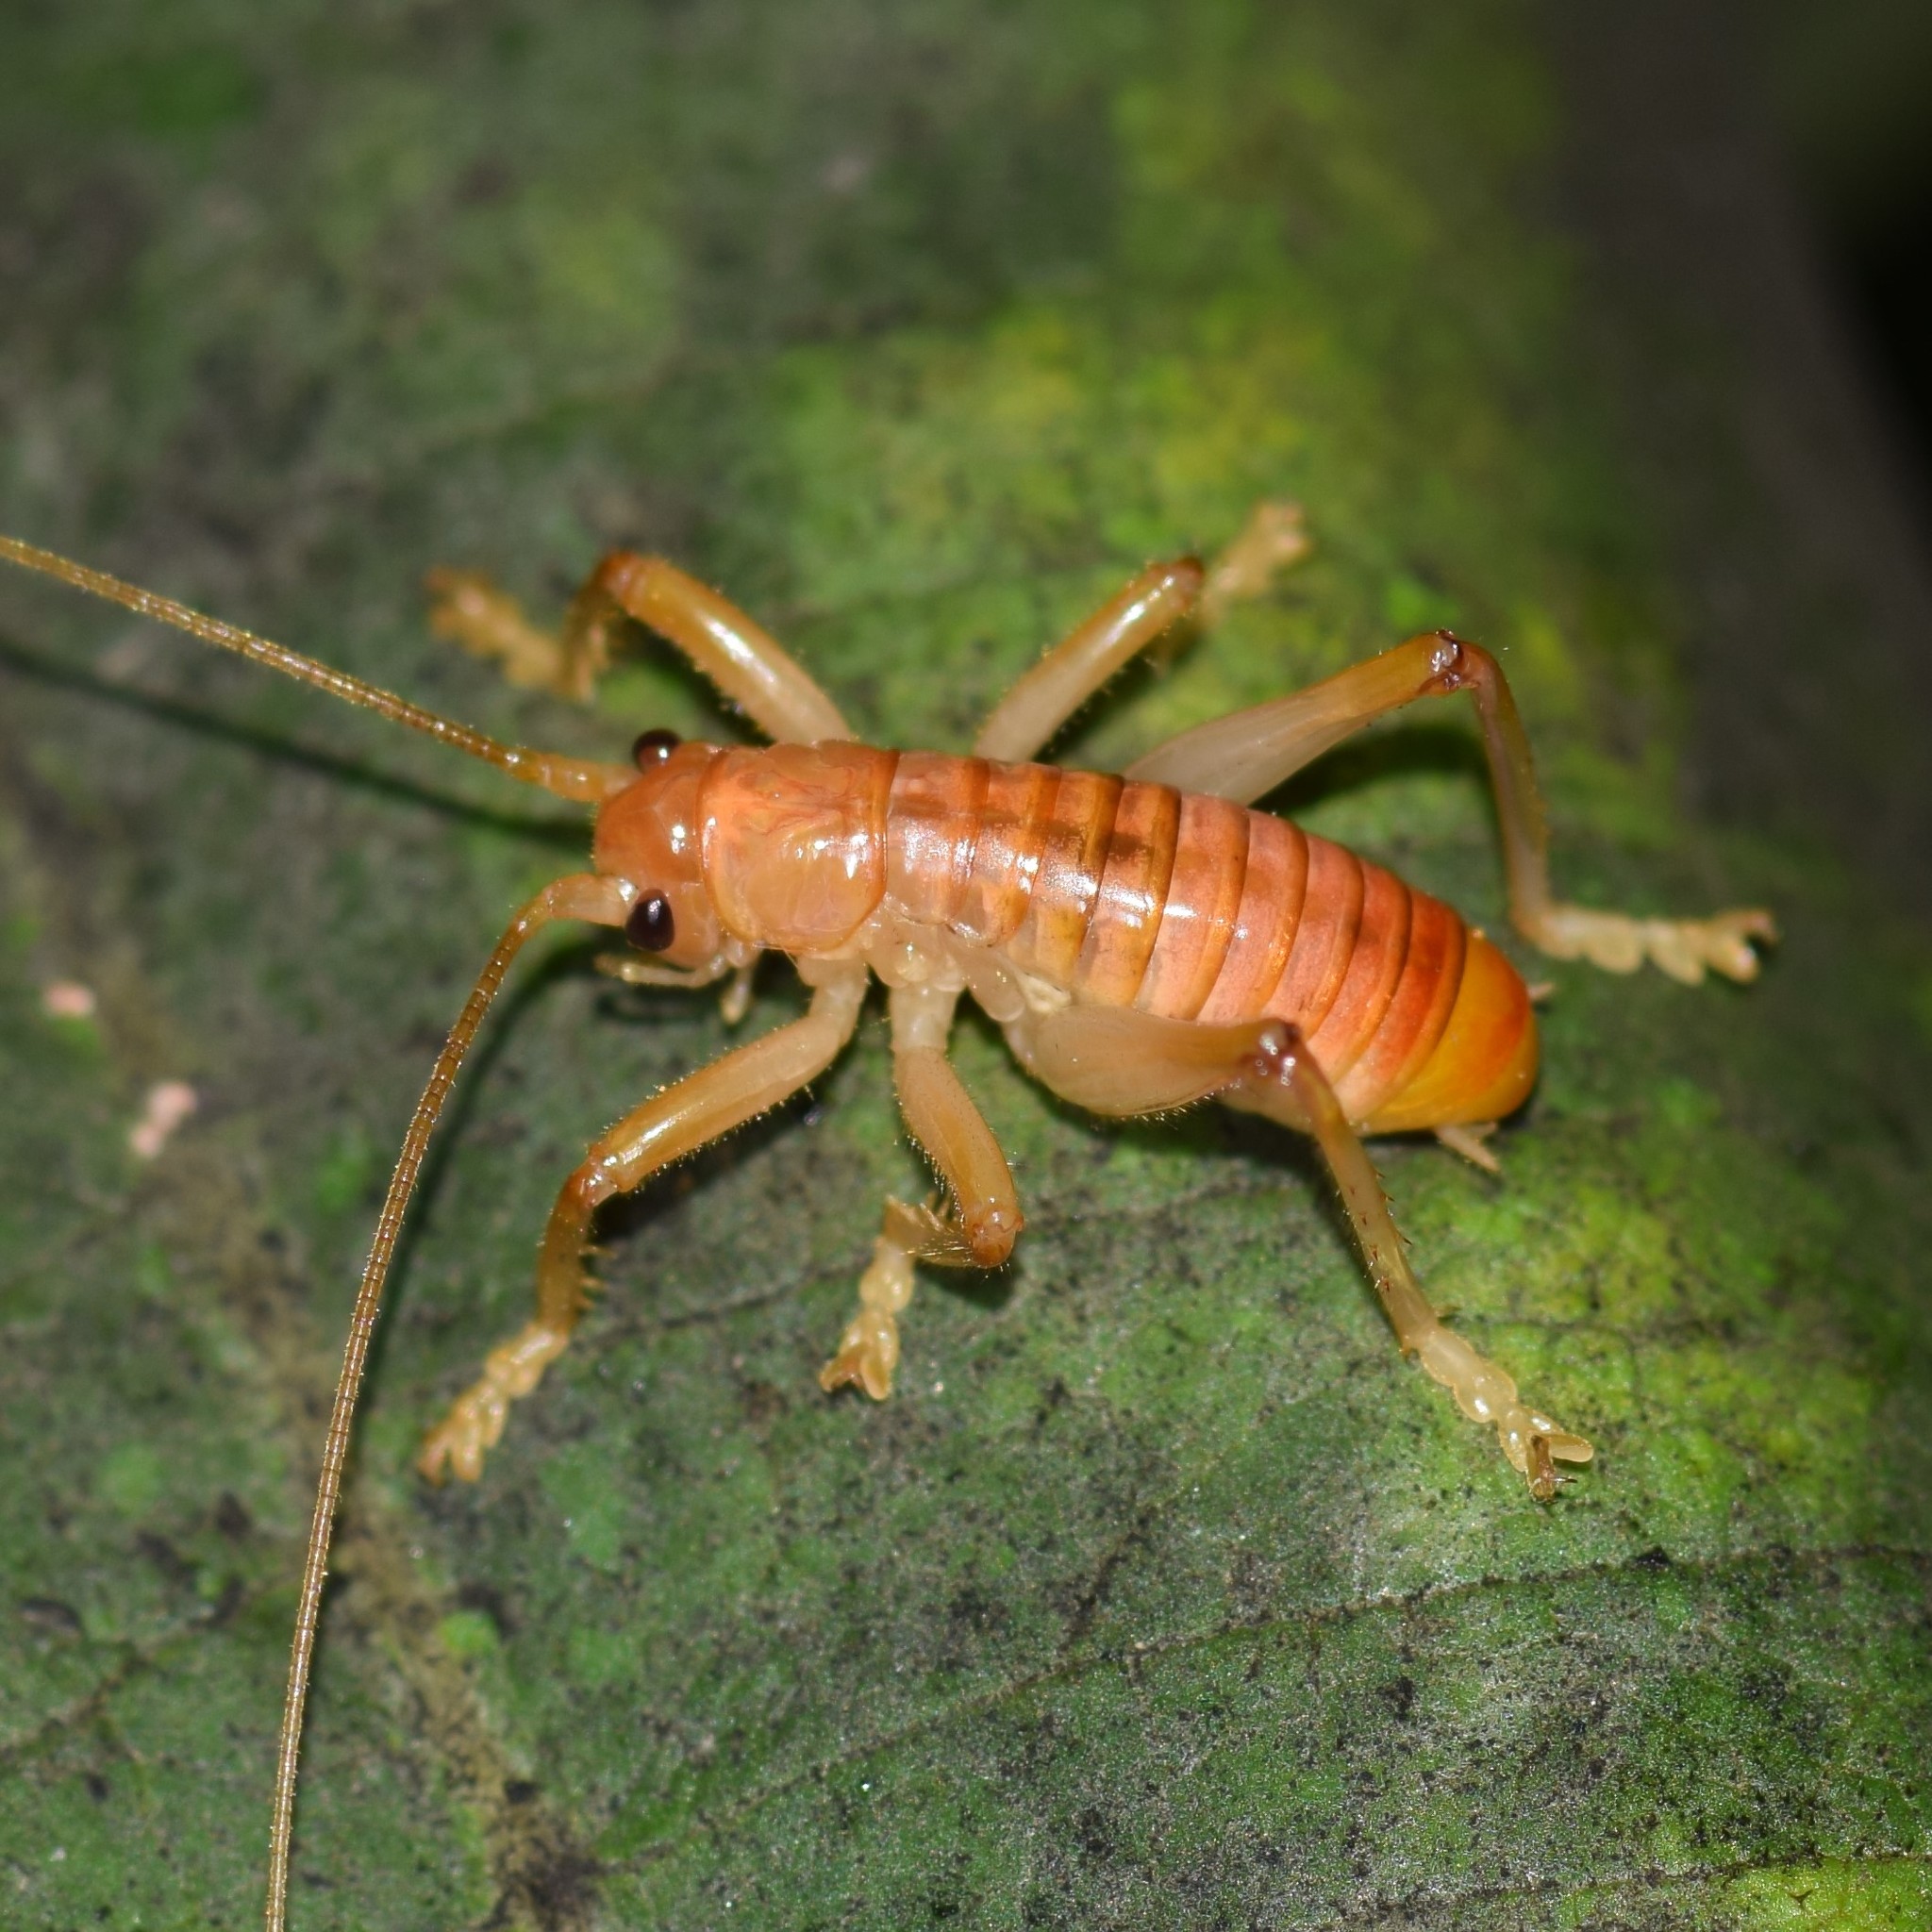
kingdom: Animalia
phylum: Arthropoda
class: Insecta
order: Orthoptera
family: Gryllacrididae
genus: Camptonotus
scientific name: Camptonotus carolinensis
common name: Carolina leaf-roller
